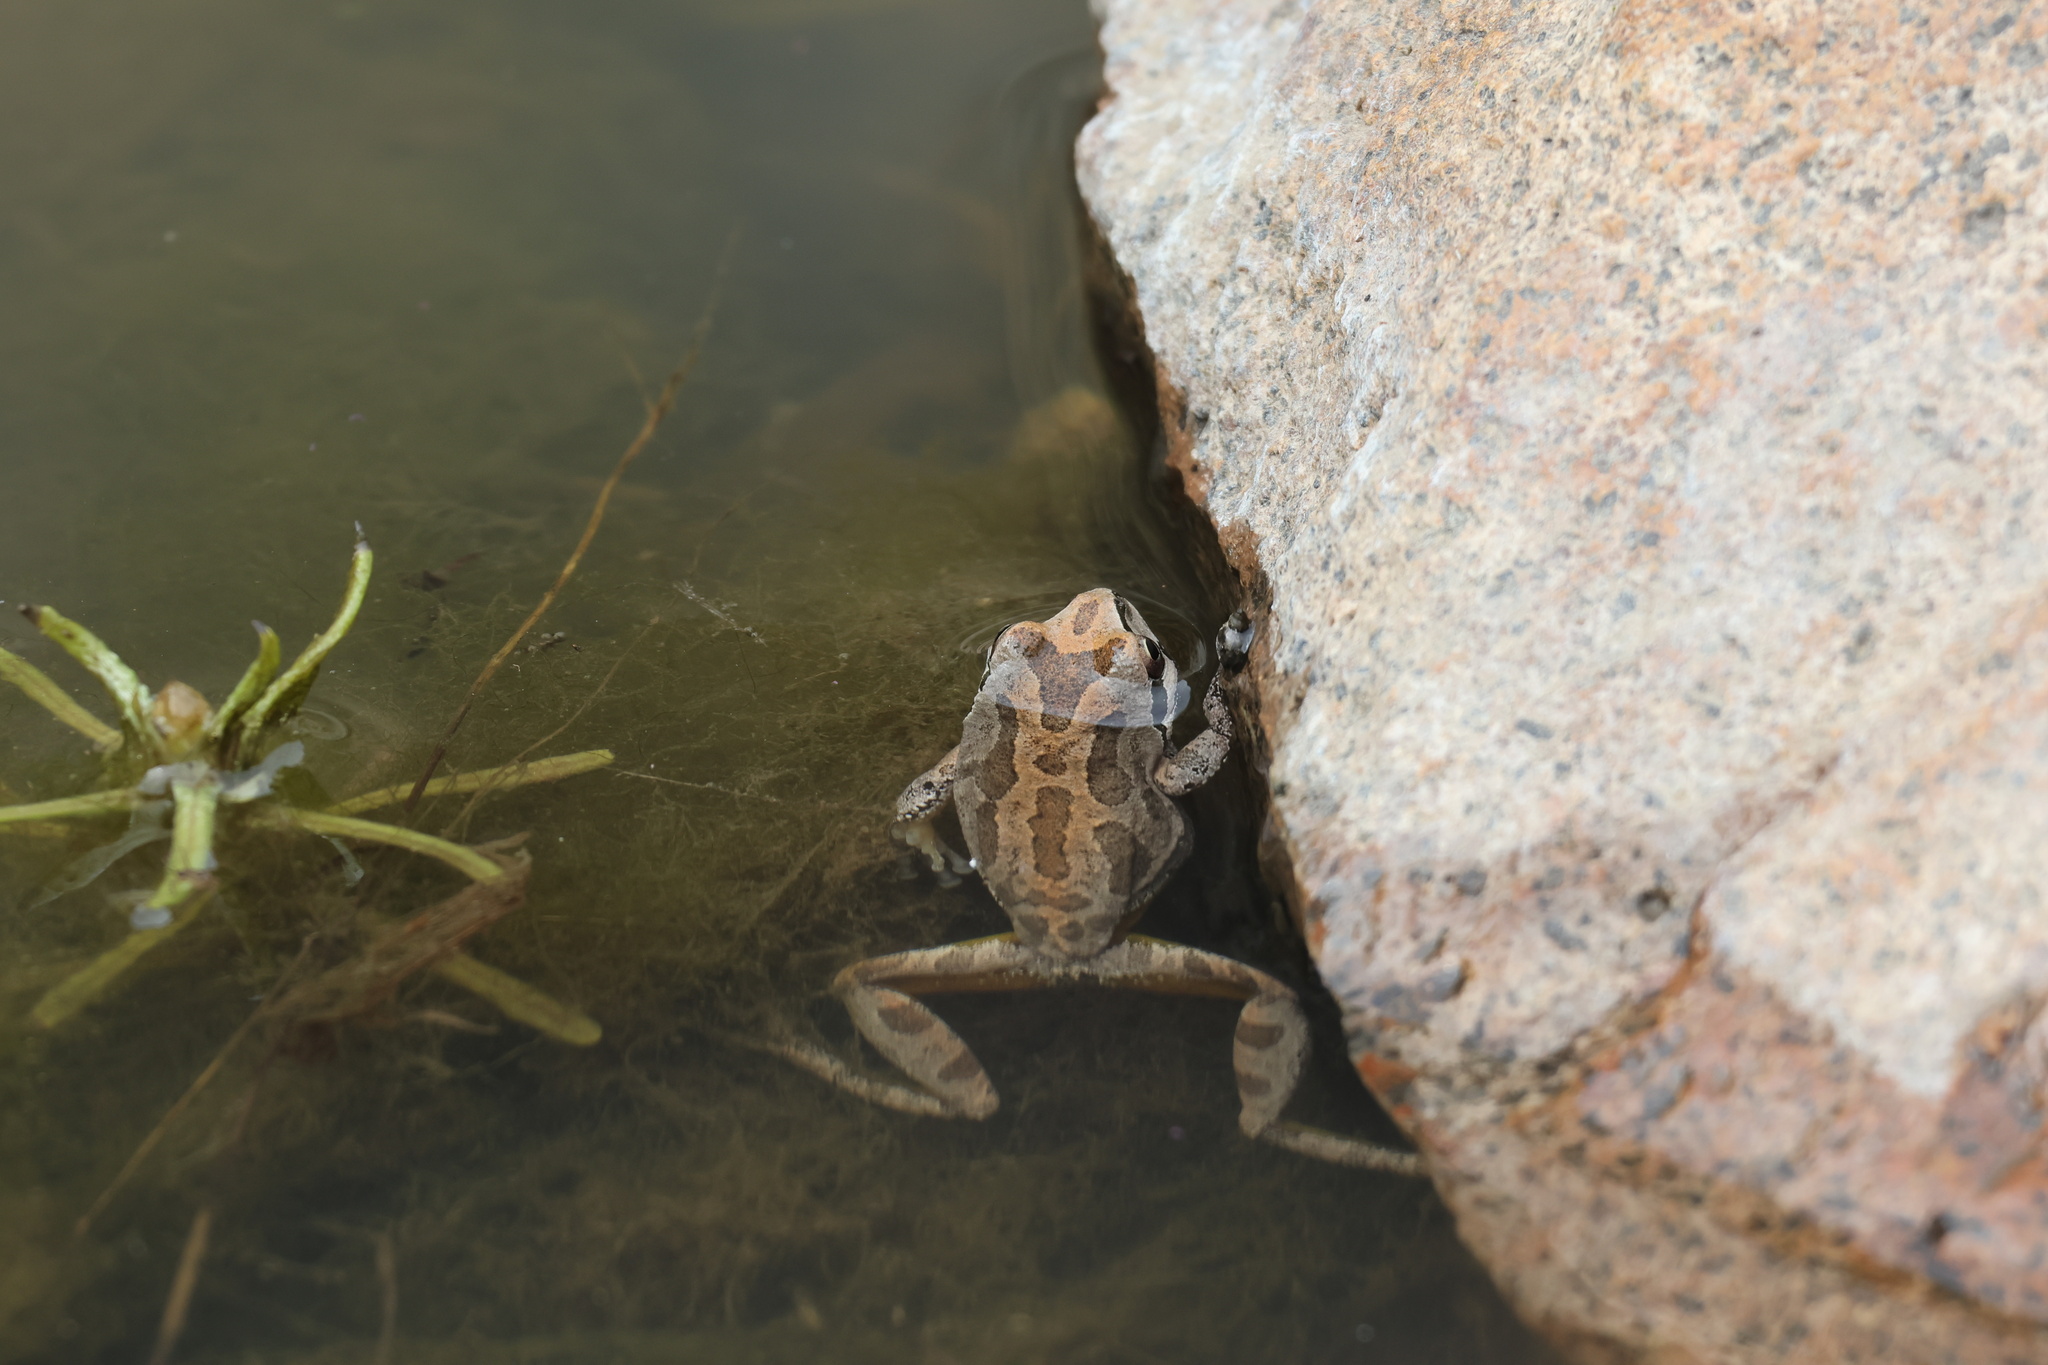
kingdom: Animalia
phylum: Chordata
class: Amphibia
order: Anura
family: Hylidae
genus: Pseudacris
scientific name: Pseudacris regilla
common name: Pacific chorus frog
